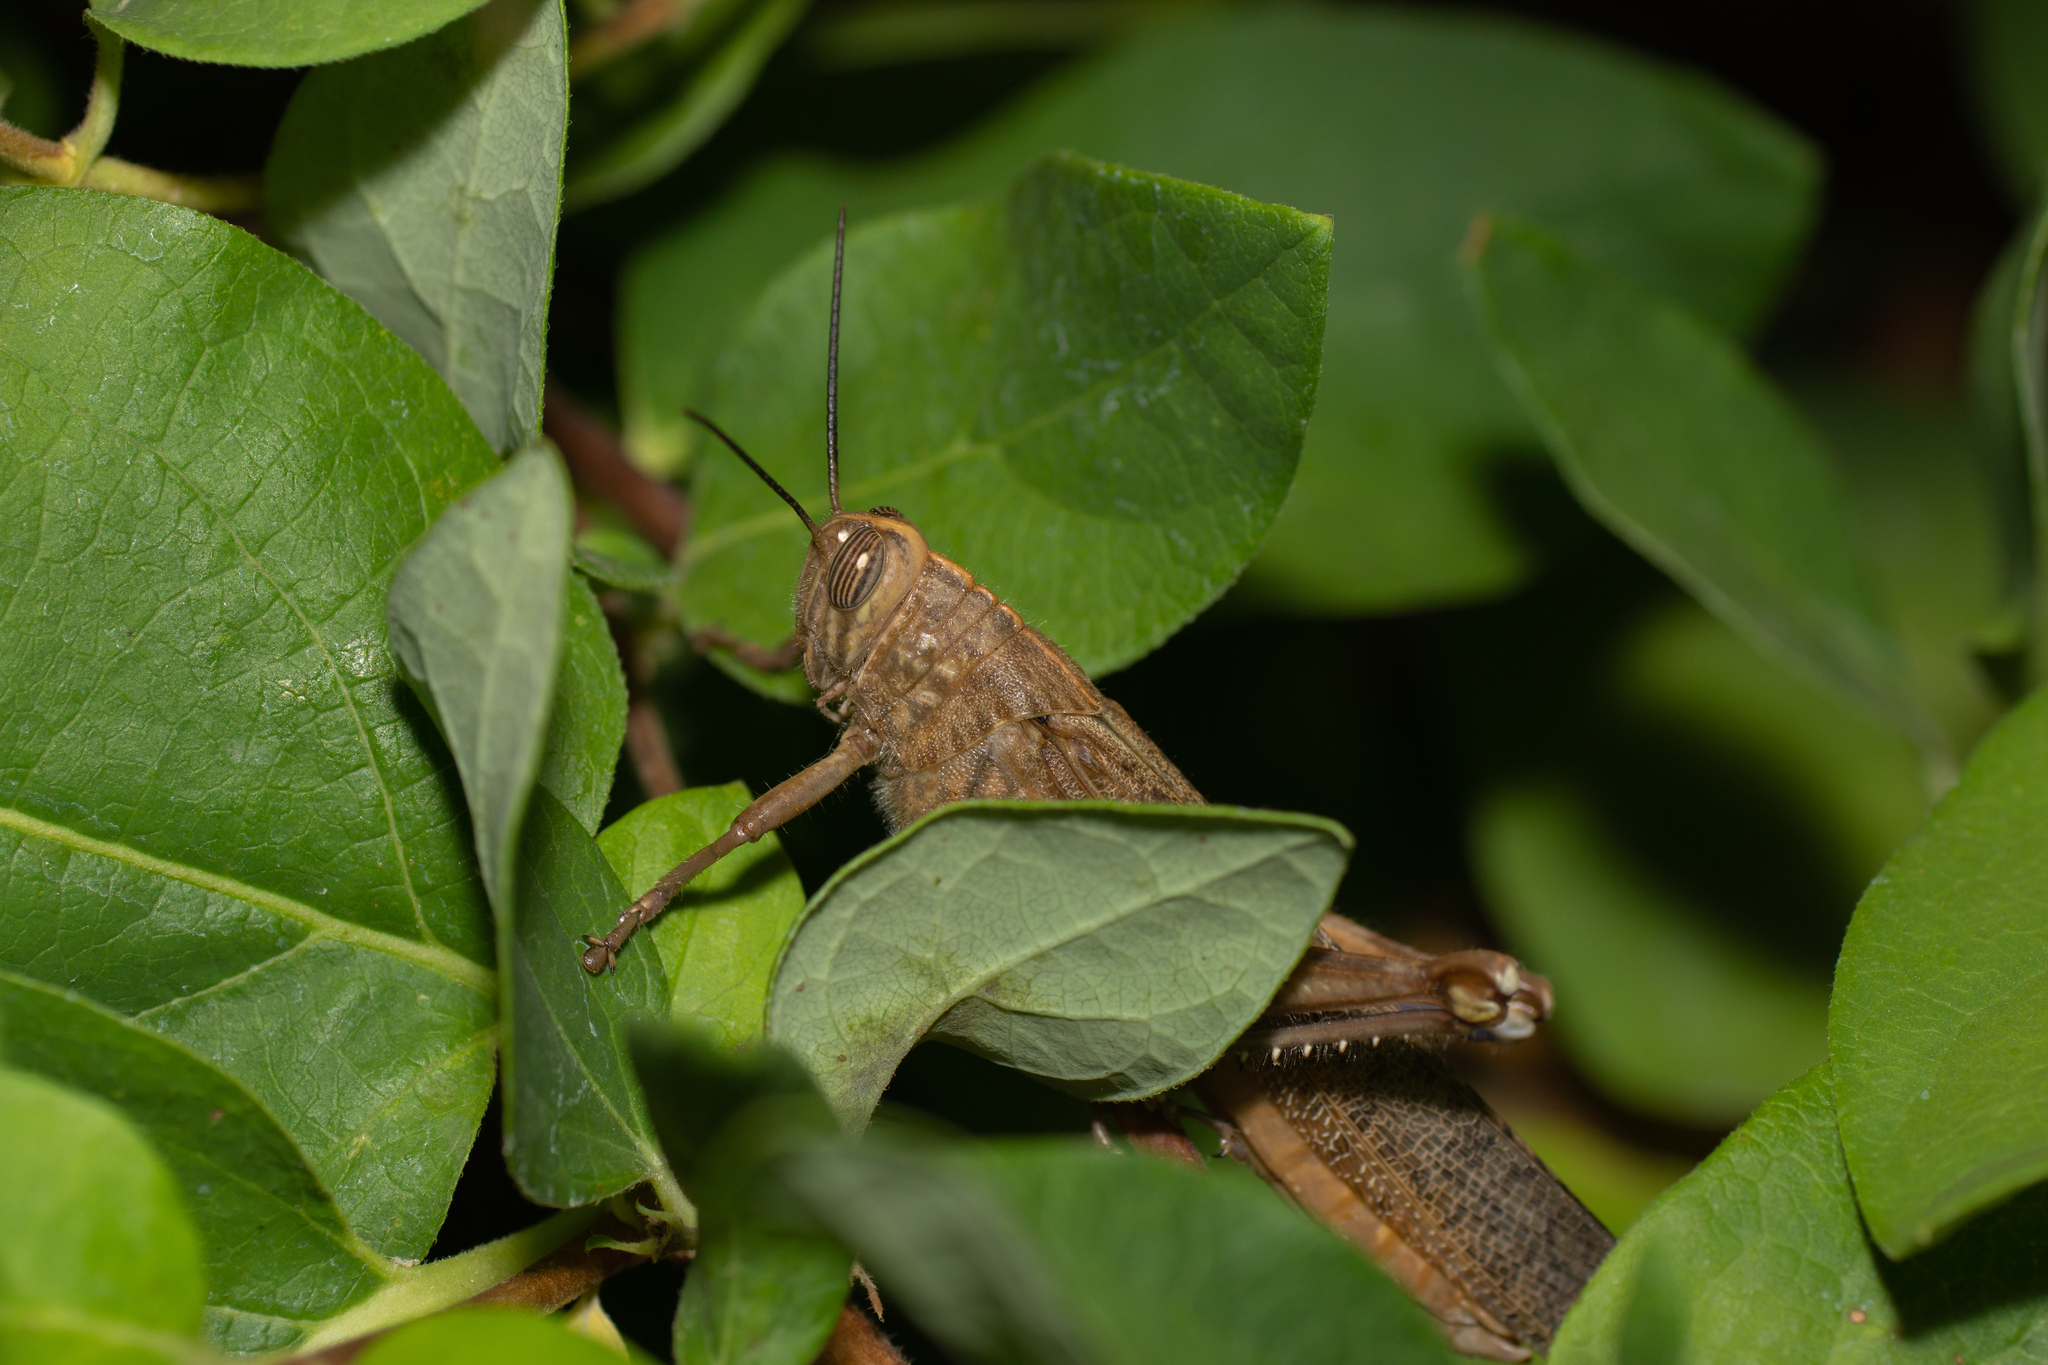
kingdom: Animalia
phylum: Arthropoda
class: Insecta
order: Orthoptera
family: Acrididae
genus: Anacridium
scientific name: Anacridium aegyptium
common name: Egyptian grasshopper
